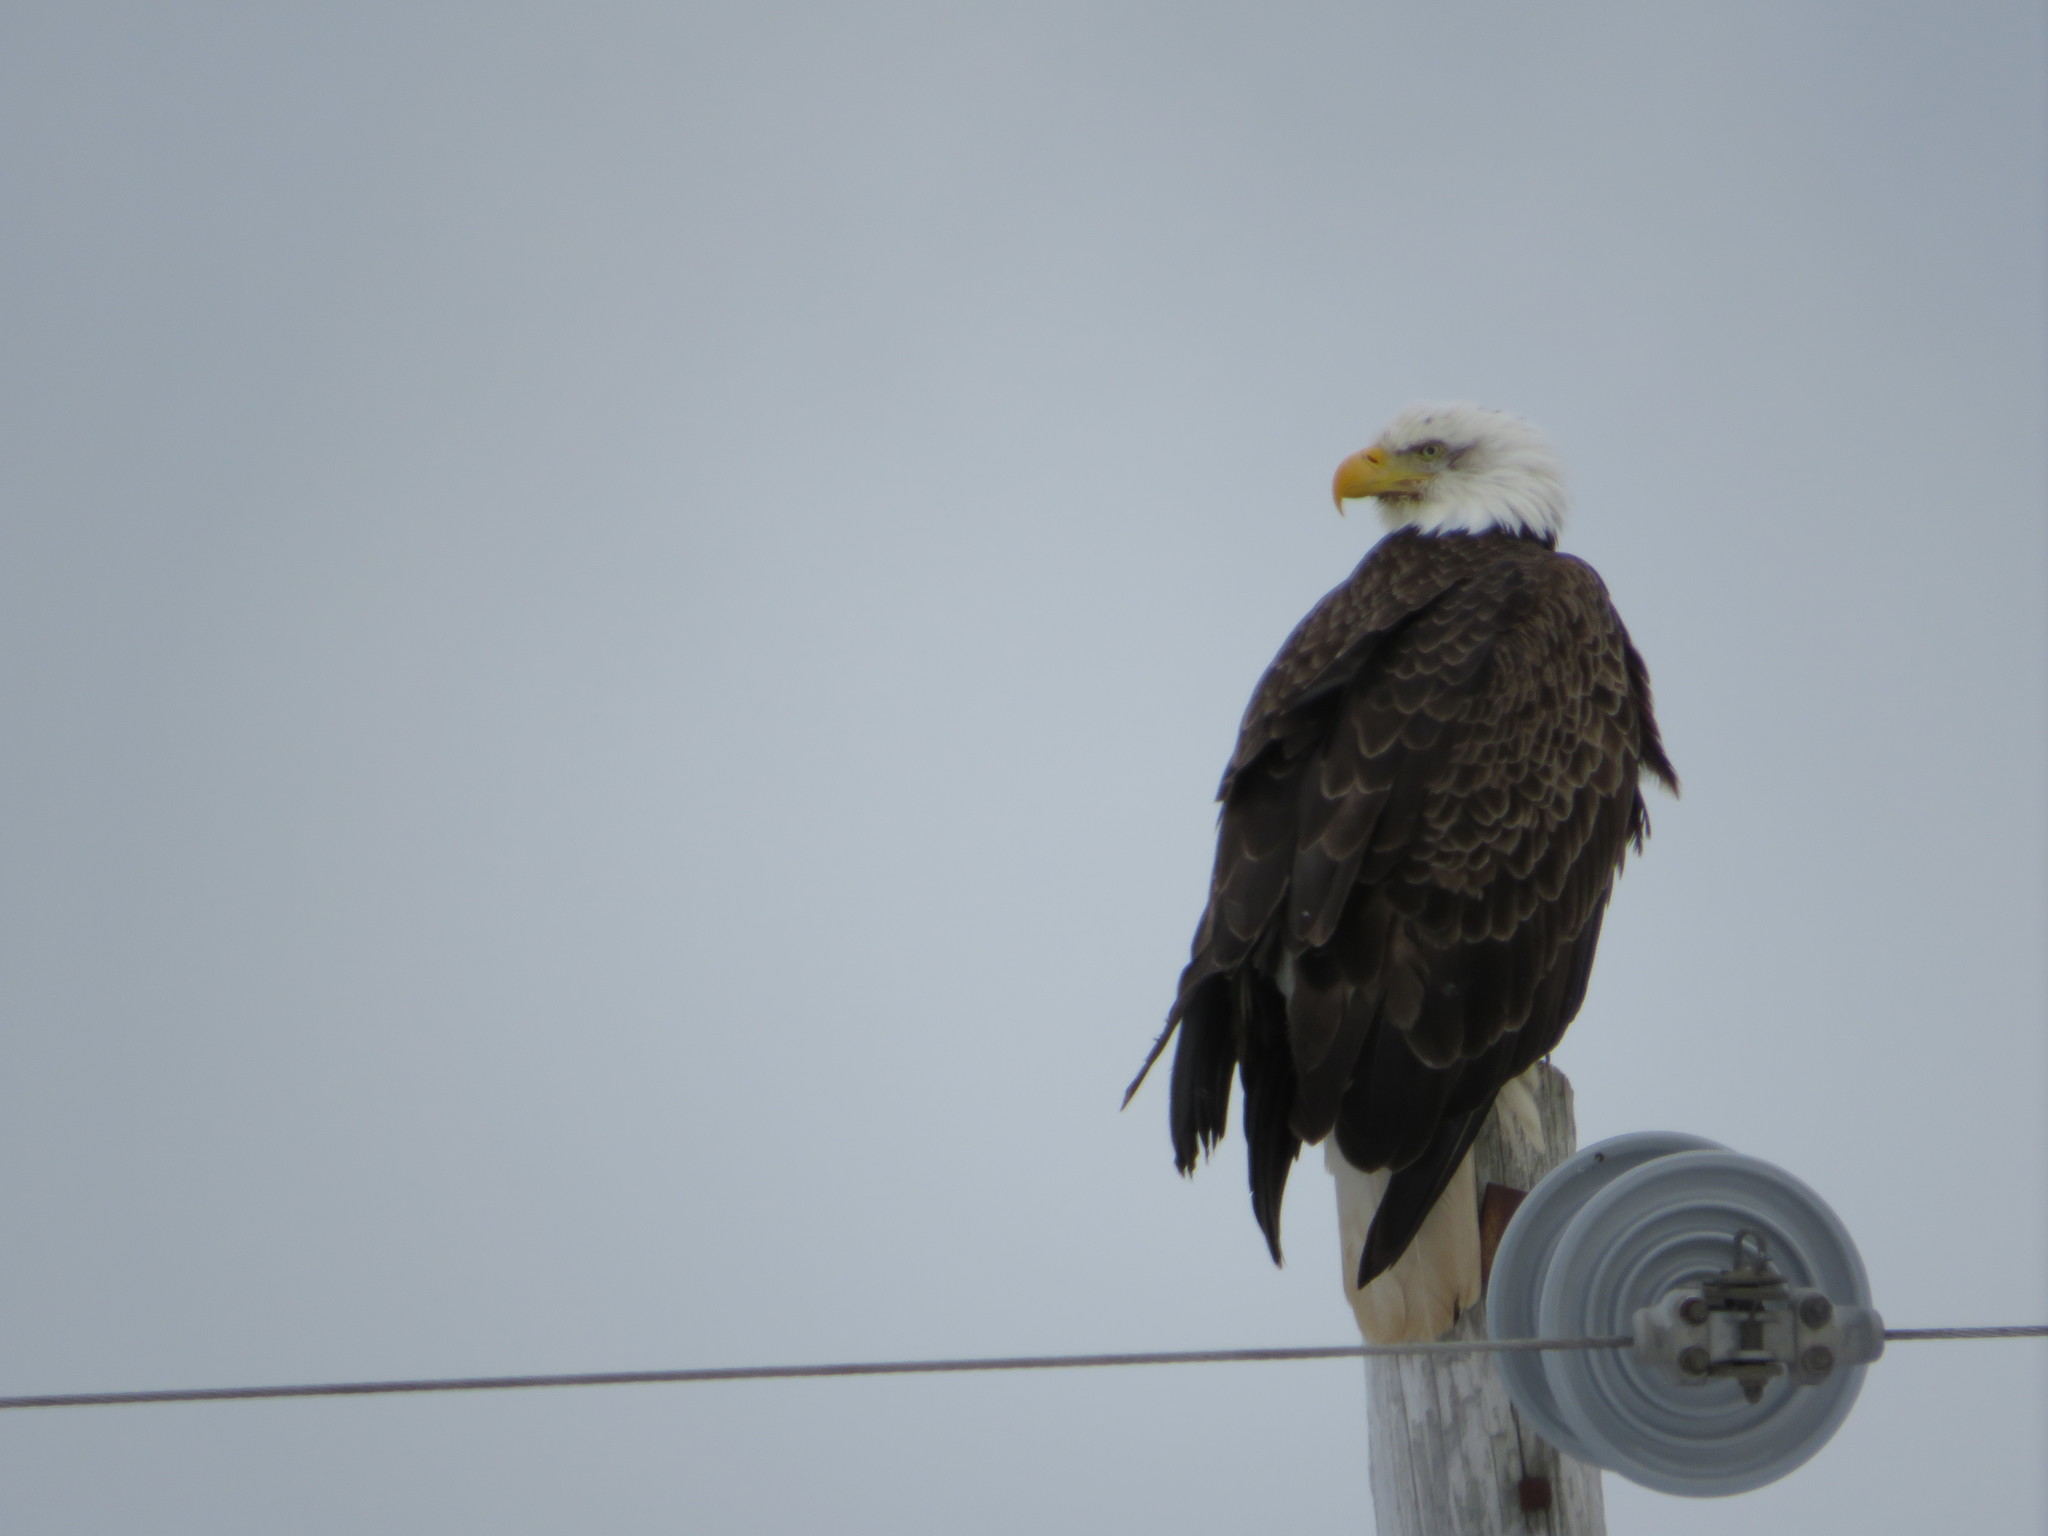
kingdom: Animalia
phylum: Chordata
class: Aves
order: Accipitriformes
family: Accipitridae
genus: Haliaeetus
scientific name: Haliaeetus leucocephalus
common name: Bald eagle
